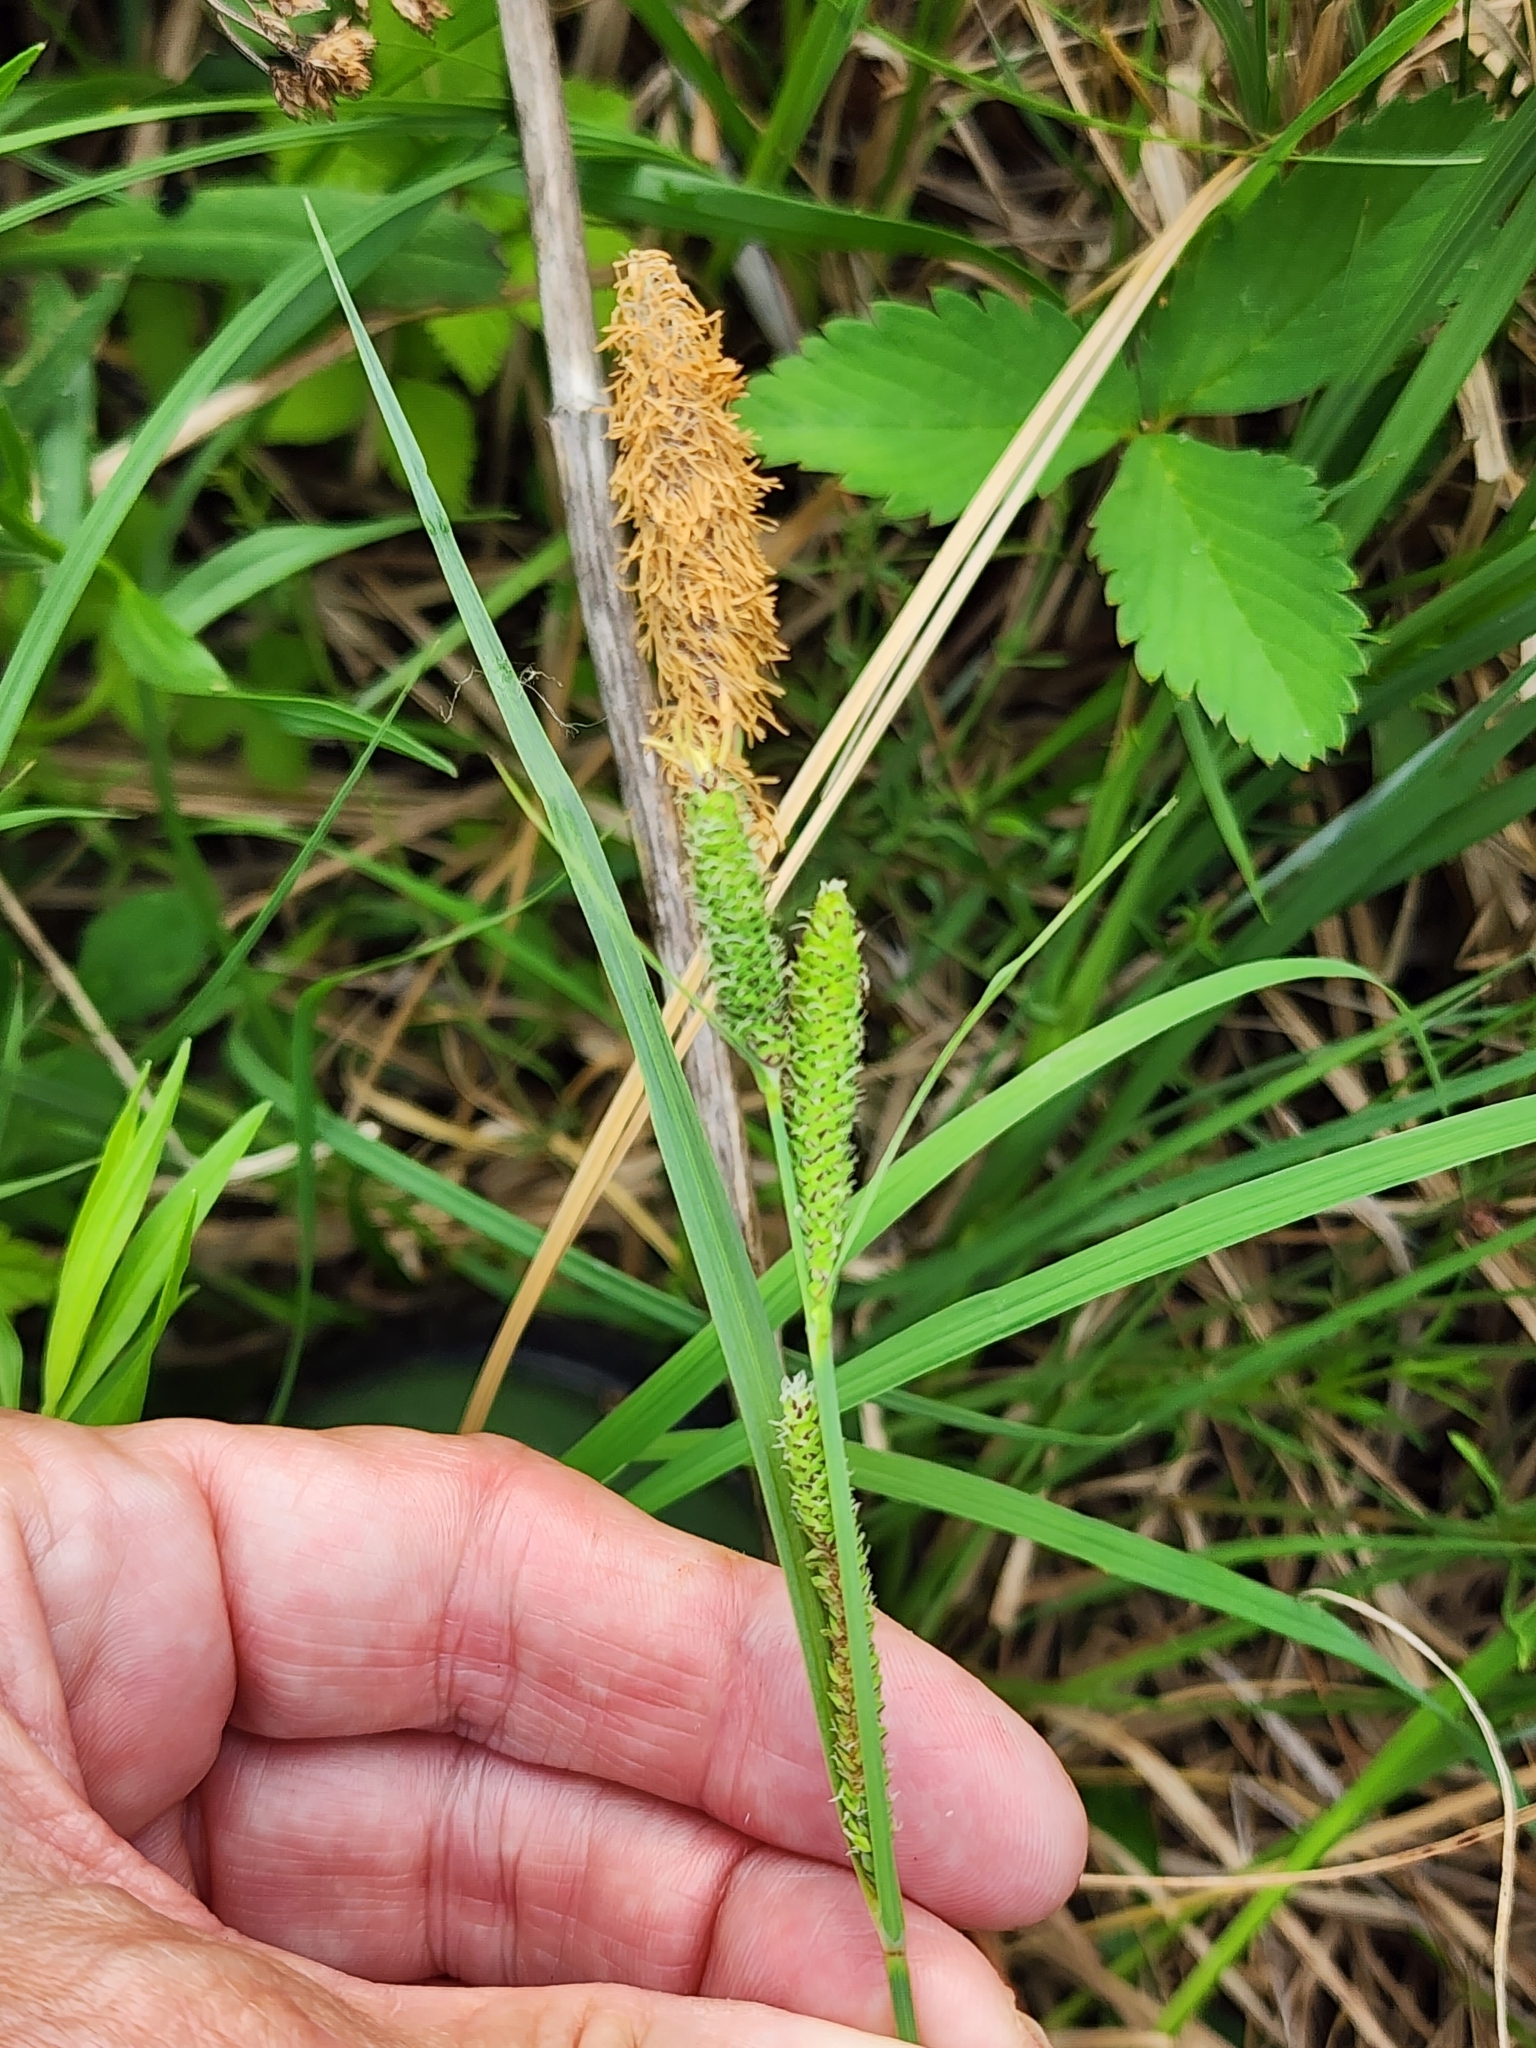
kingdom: Plantae
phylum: Tracheophyta
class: Liliopsida
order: Poales
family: Cyperaceae
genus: Carex
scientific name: Carex aquatilis
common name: Water sedge
